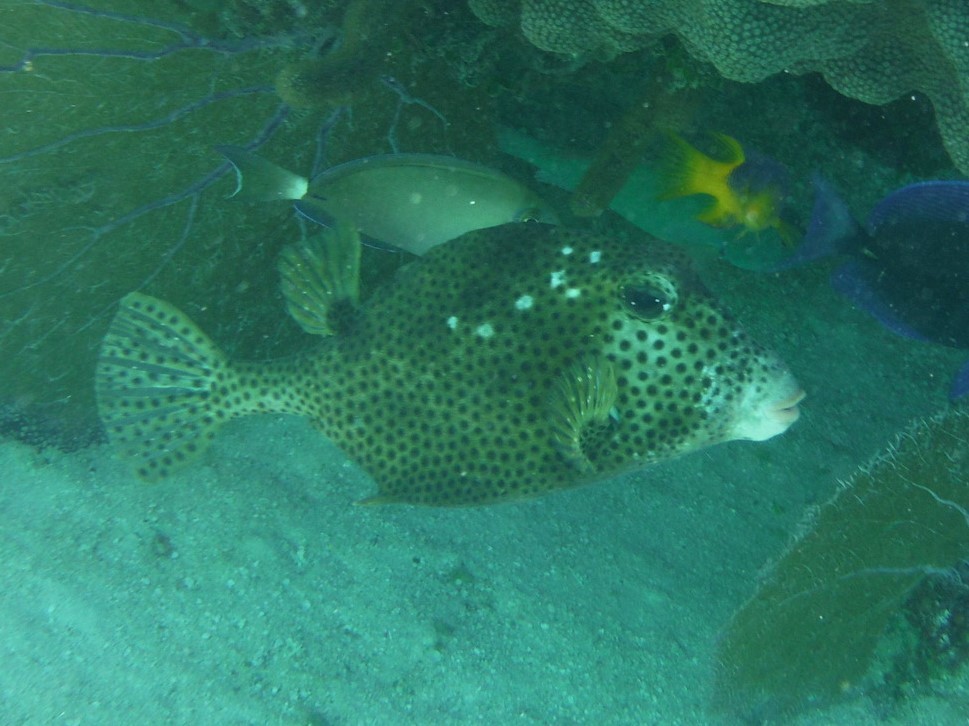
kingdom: Animalia
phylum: Chordata
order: Tetraodontiformes
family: Ostraciidae
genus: Lactophrys
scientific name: Lactophrys bicaudalis
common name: Spotted trunkfish
